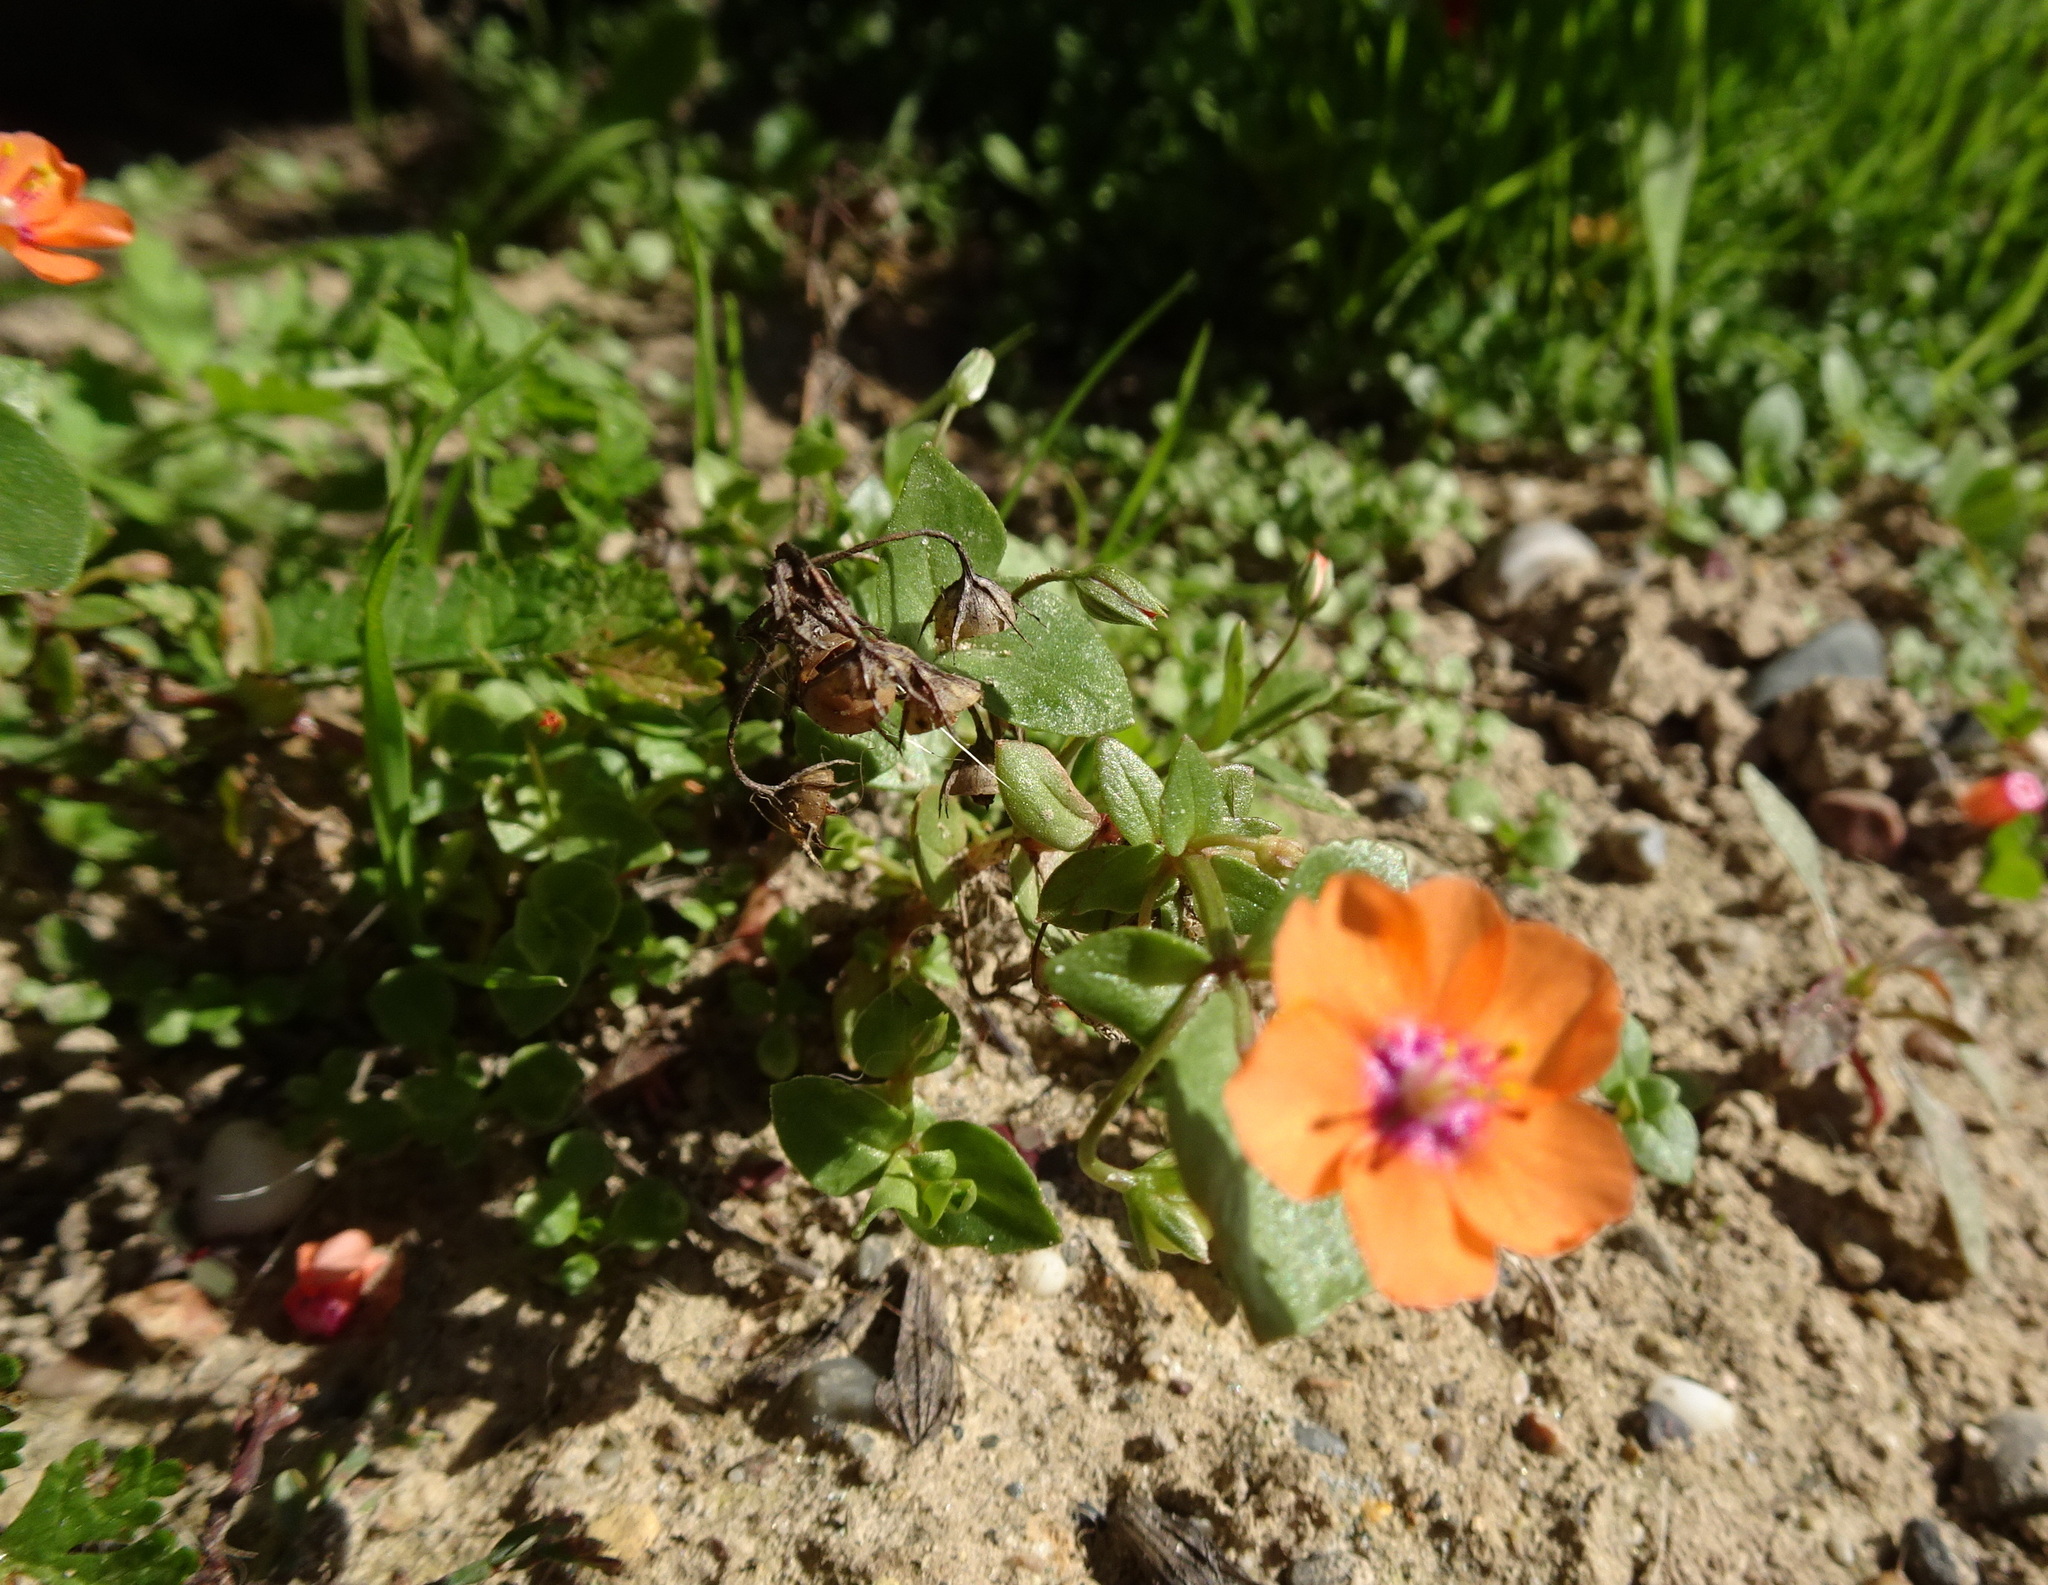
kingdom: Plantae
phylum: Tracheophyta
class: Magnoliopsida
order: Ericales
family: Primulaceae
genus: Lysimachia
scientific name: Lysimachia arvensis
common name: Scarlet pimpernel
